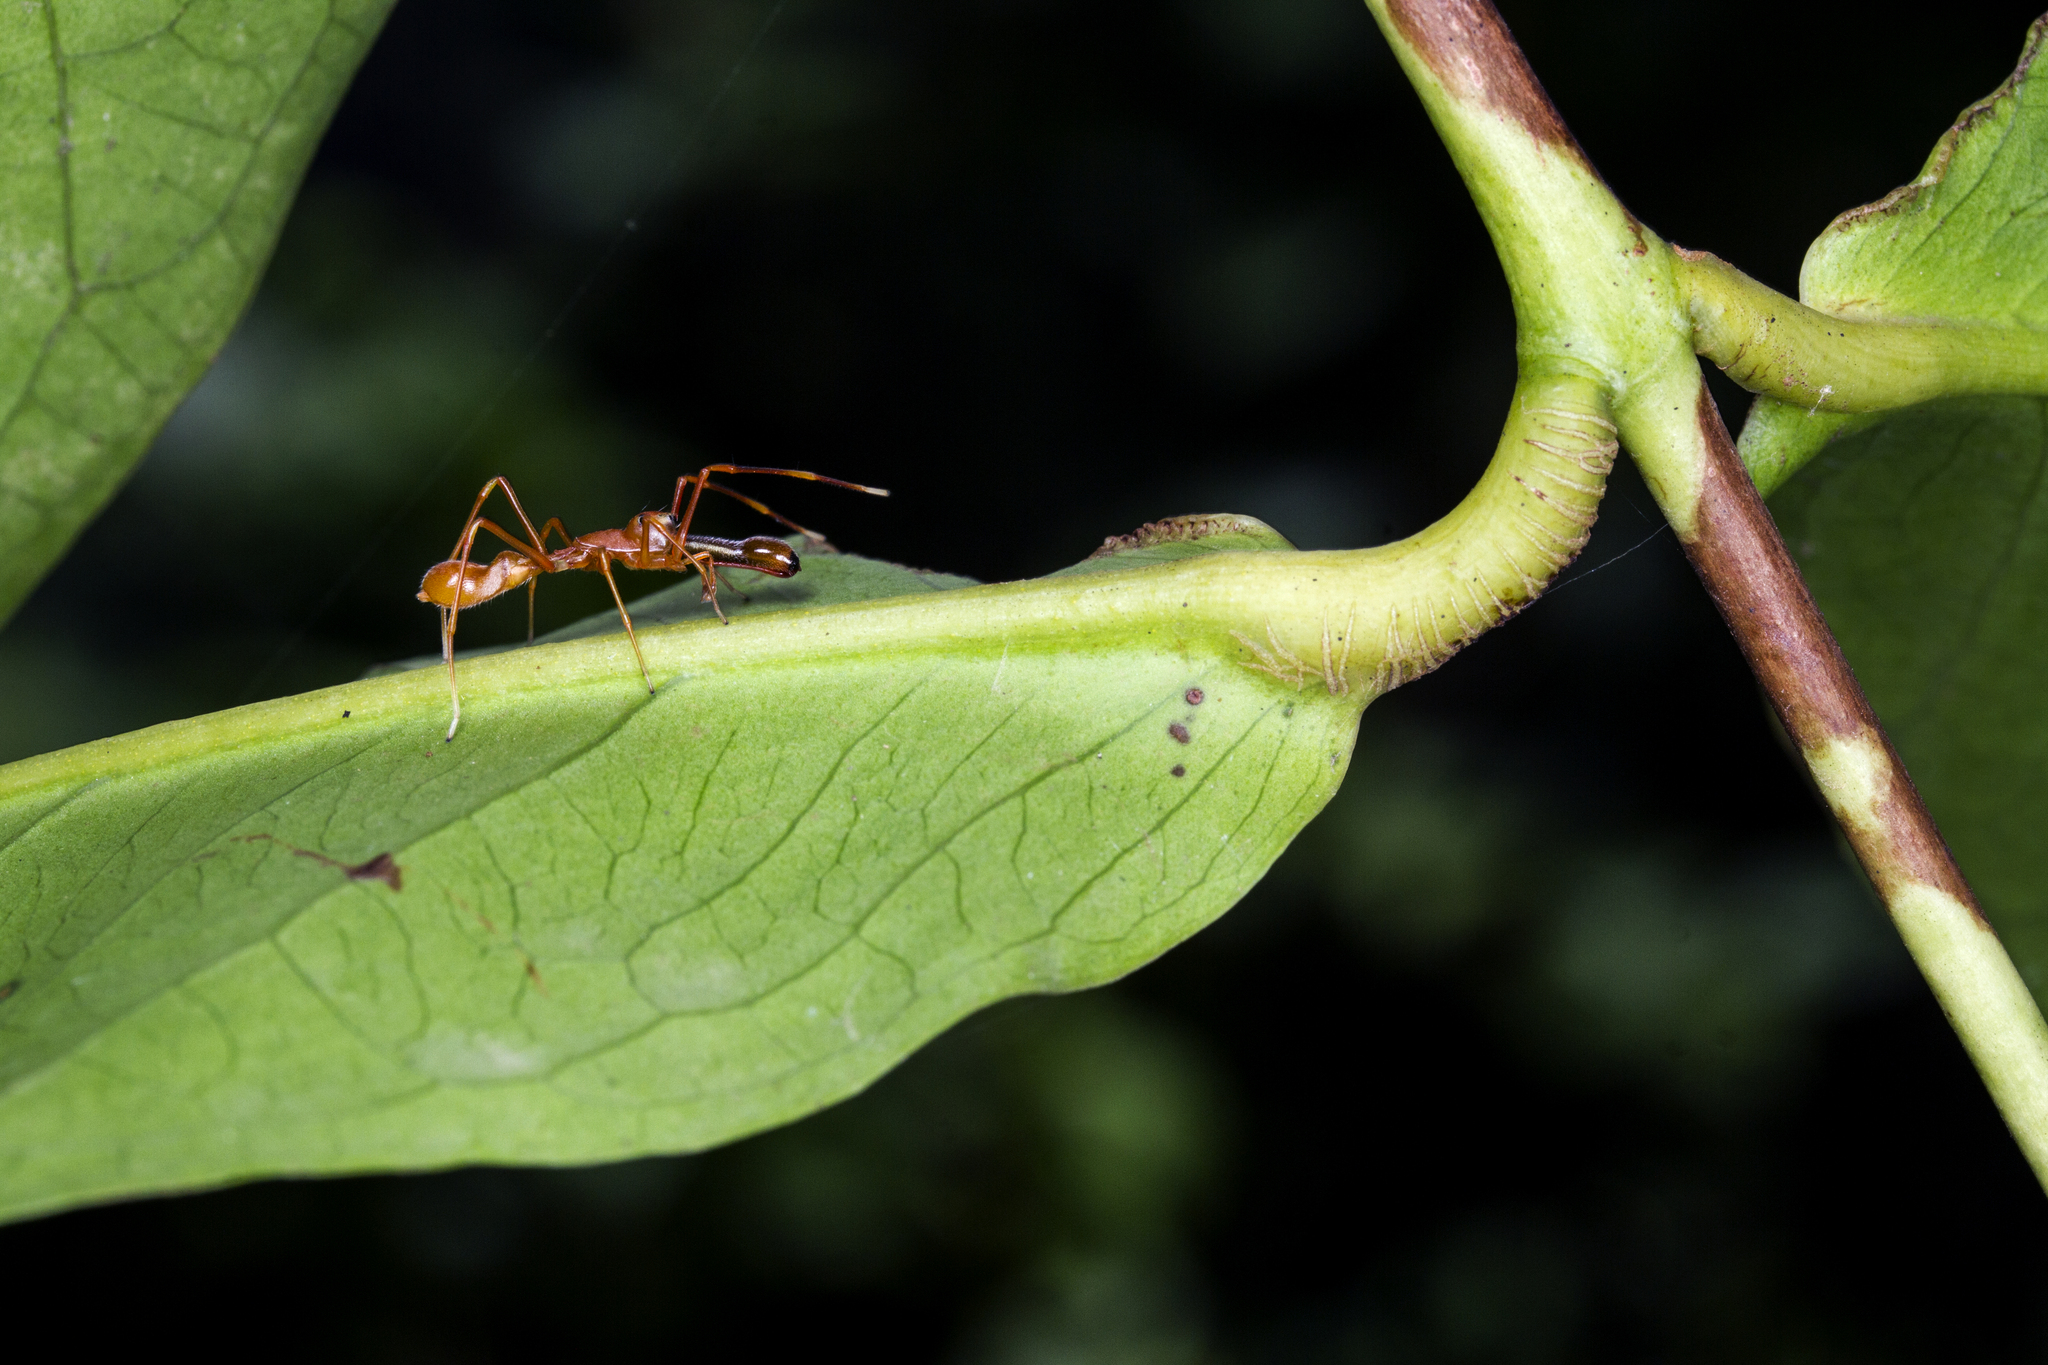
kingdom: Animalia
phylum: Arthropoda
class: Arachnida
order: Araneae
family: Salticidae
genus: Myrmaplata
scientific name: Myrmaplata plataleoides
